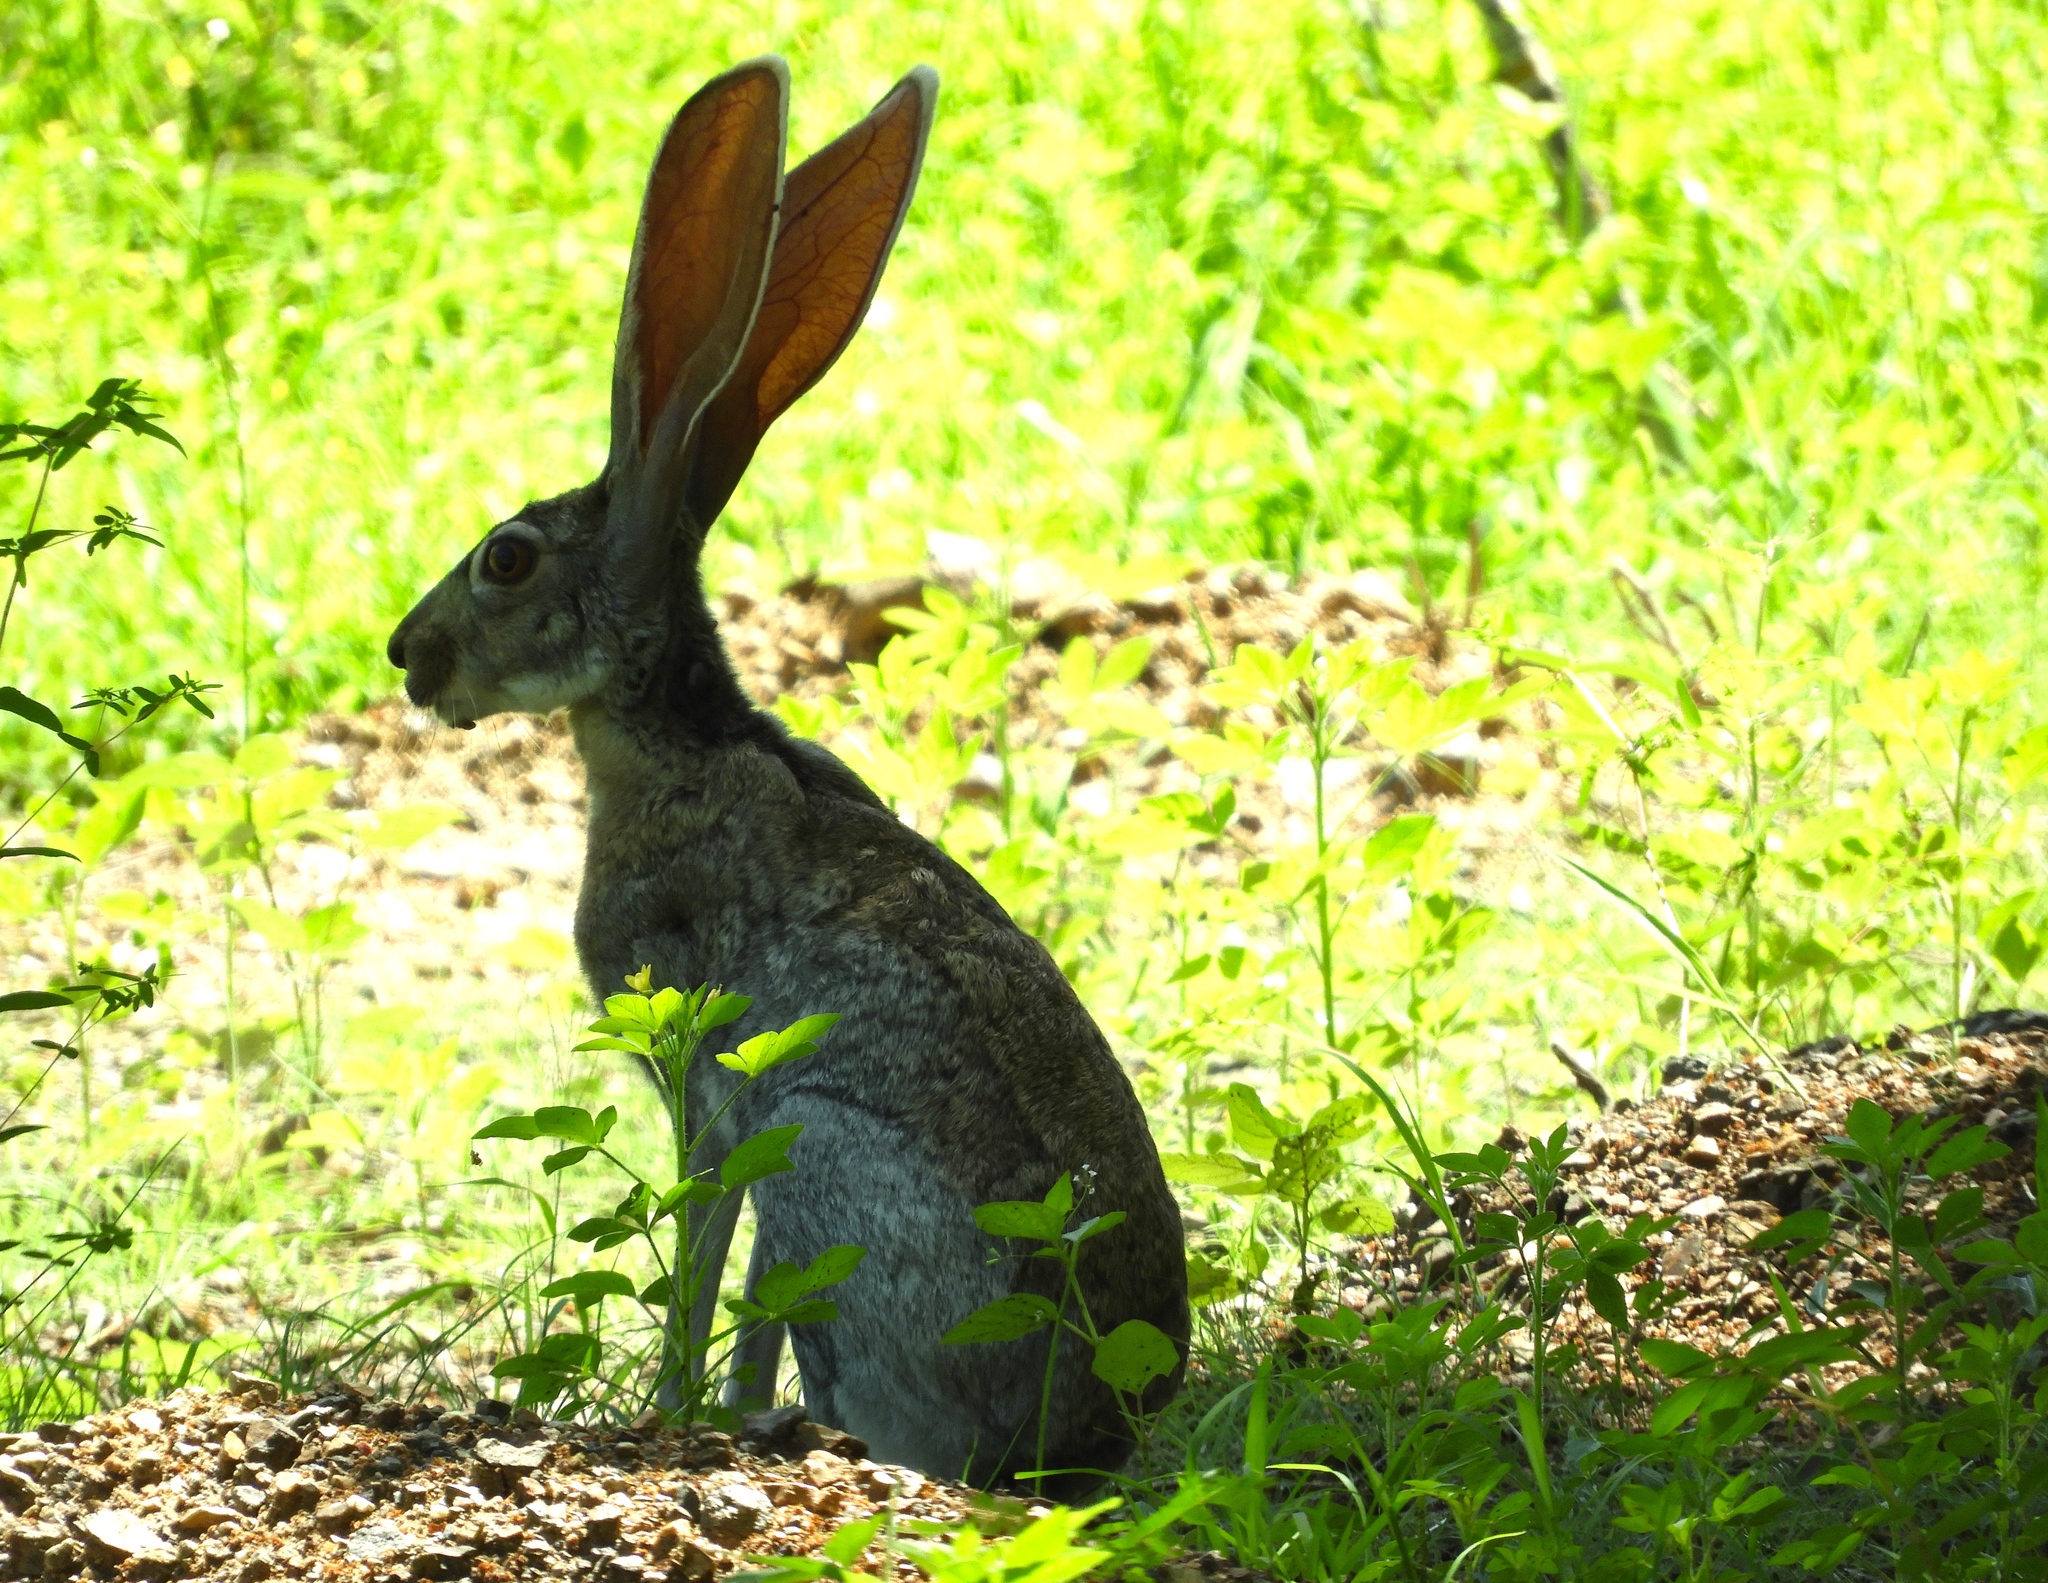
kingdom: Animalia
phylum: Chordata
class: Mammalia
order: Lagomorpha
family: Leporidae
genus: Lepus
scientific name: Lepus alleni
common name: Antelope jackrabbit
